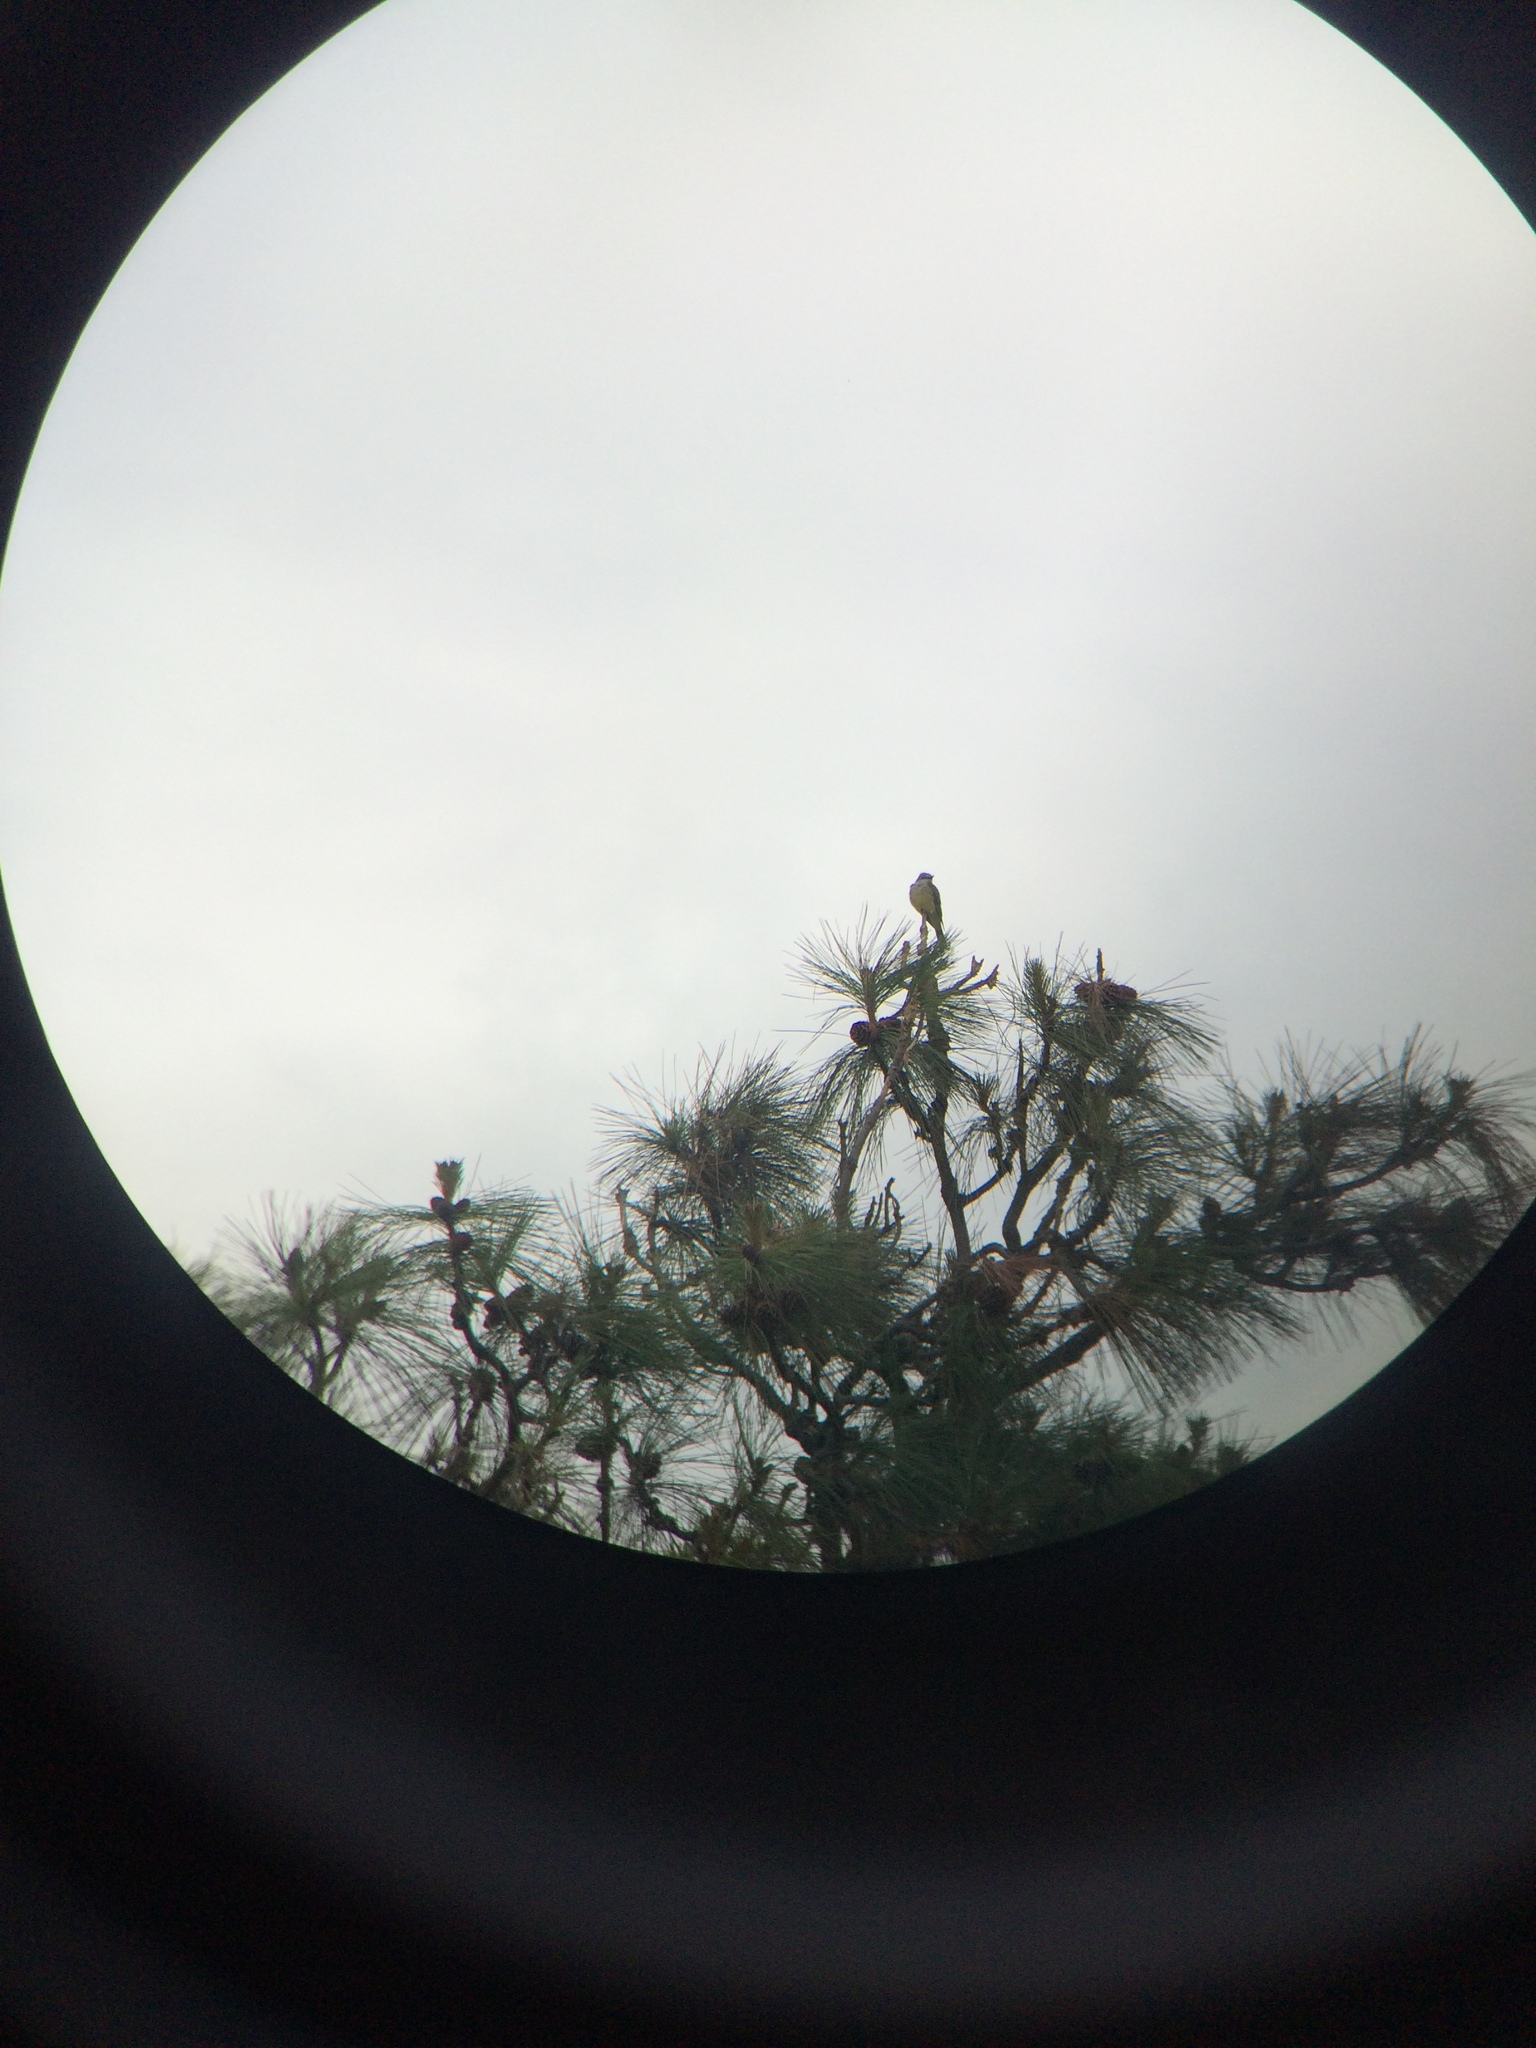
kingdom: Animalia
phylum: Chordata
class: Aves
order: Passeriformes
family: Tyrannidae
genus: Tyrannus
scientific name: Tyrannus verticalis
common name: Western kingbird
